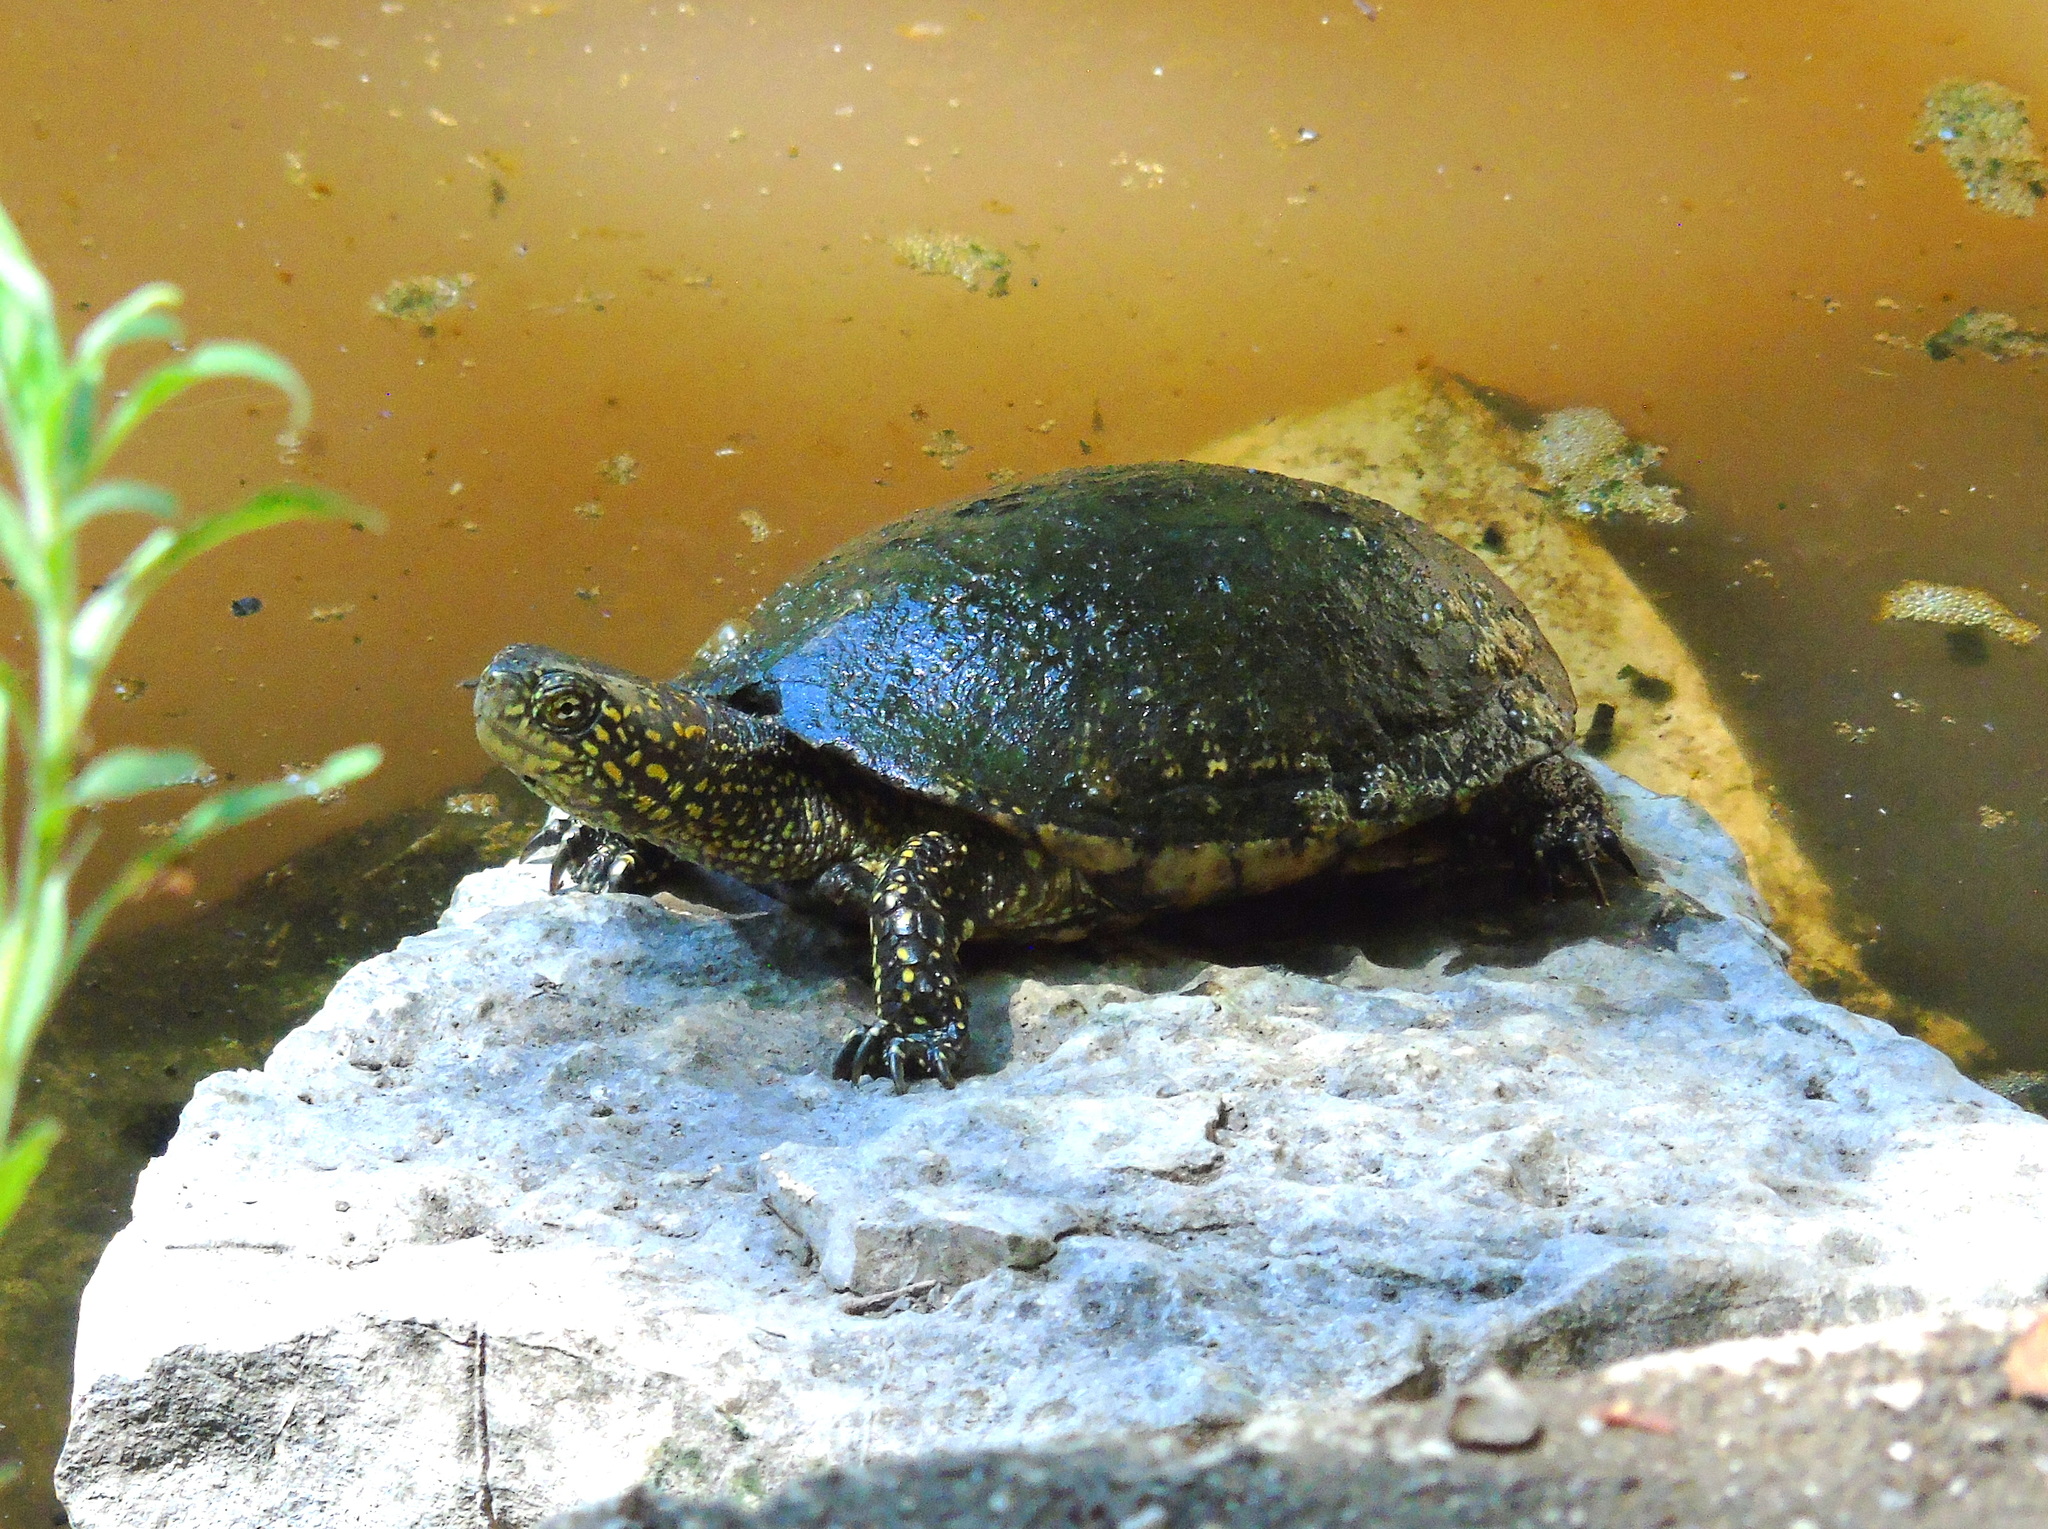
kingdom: Animalia
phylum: Chordata
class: Testudines
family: Emydidae
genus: Emys
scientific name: Emys orbicularis
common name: European pond turtle
